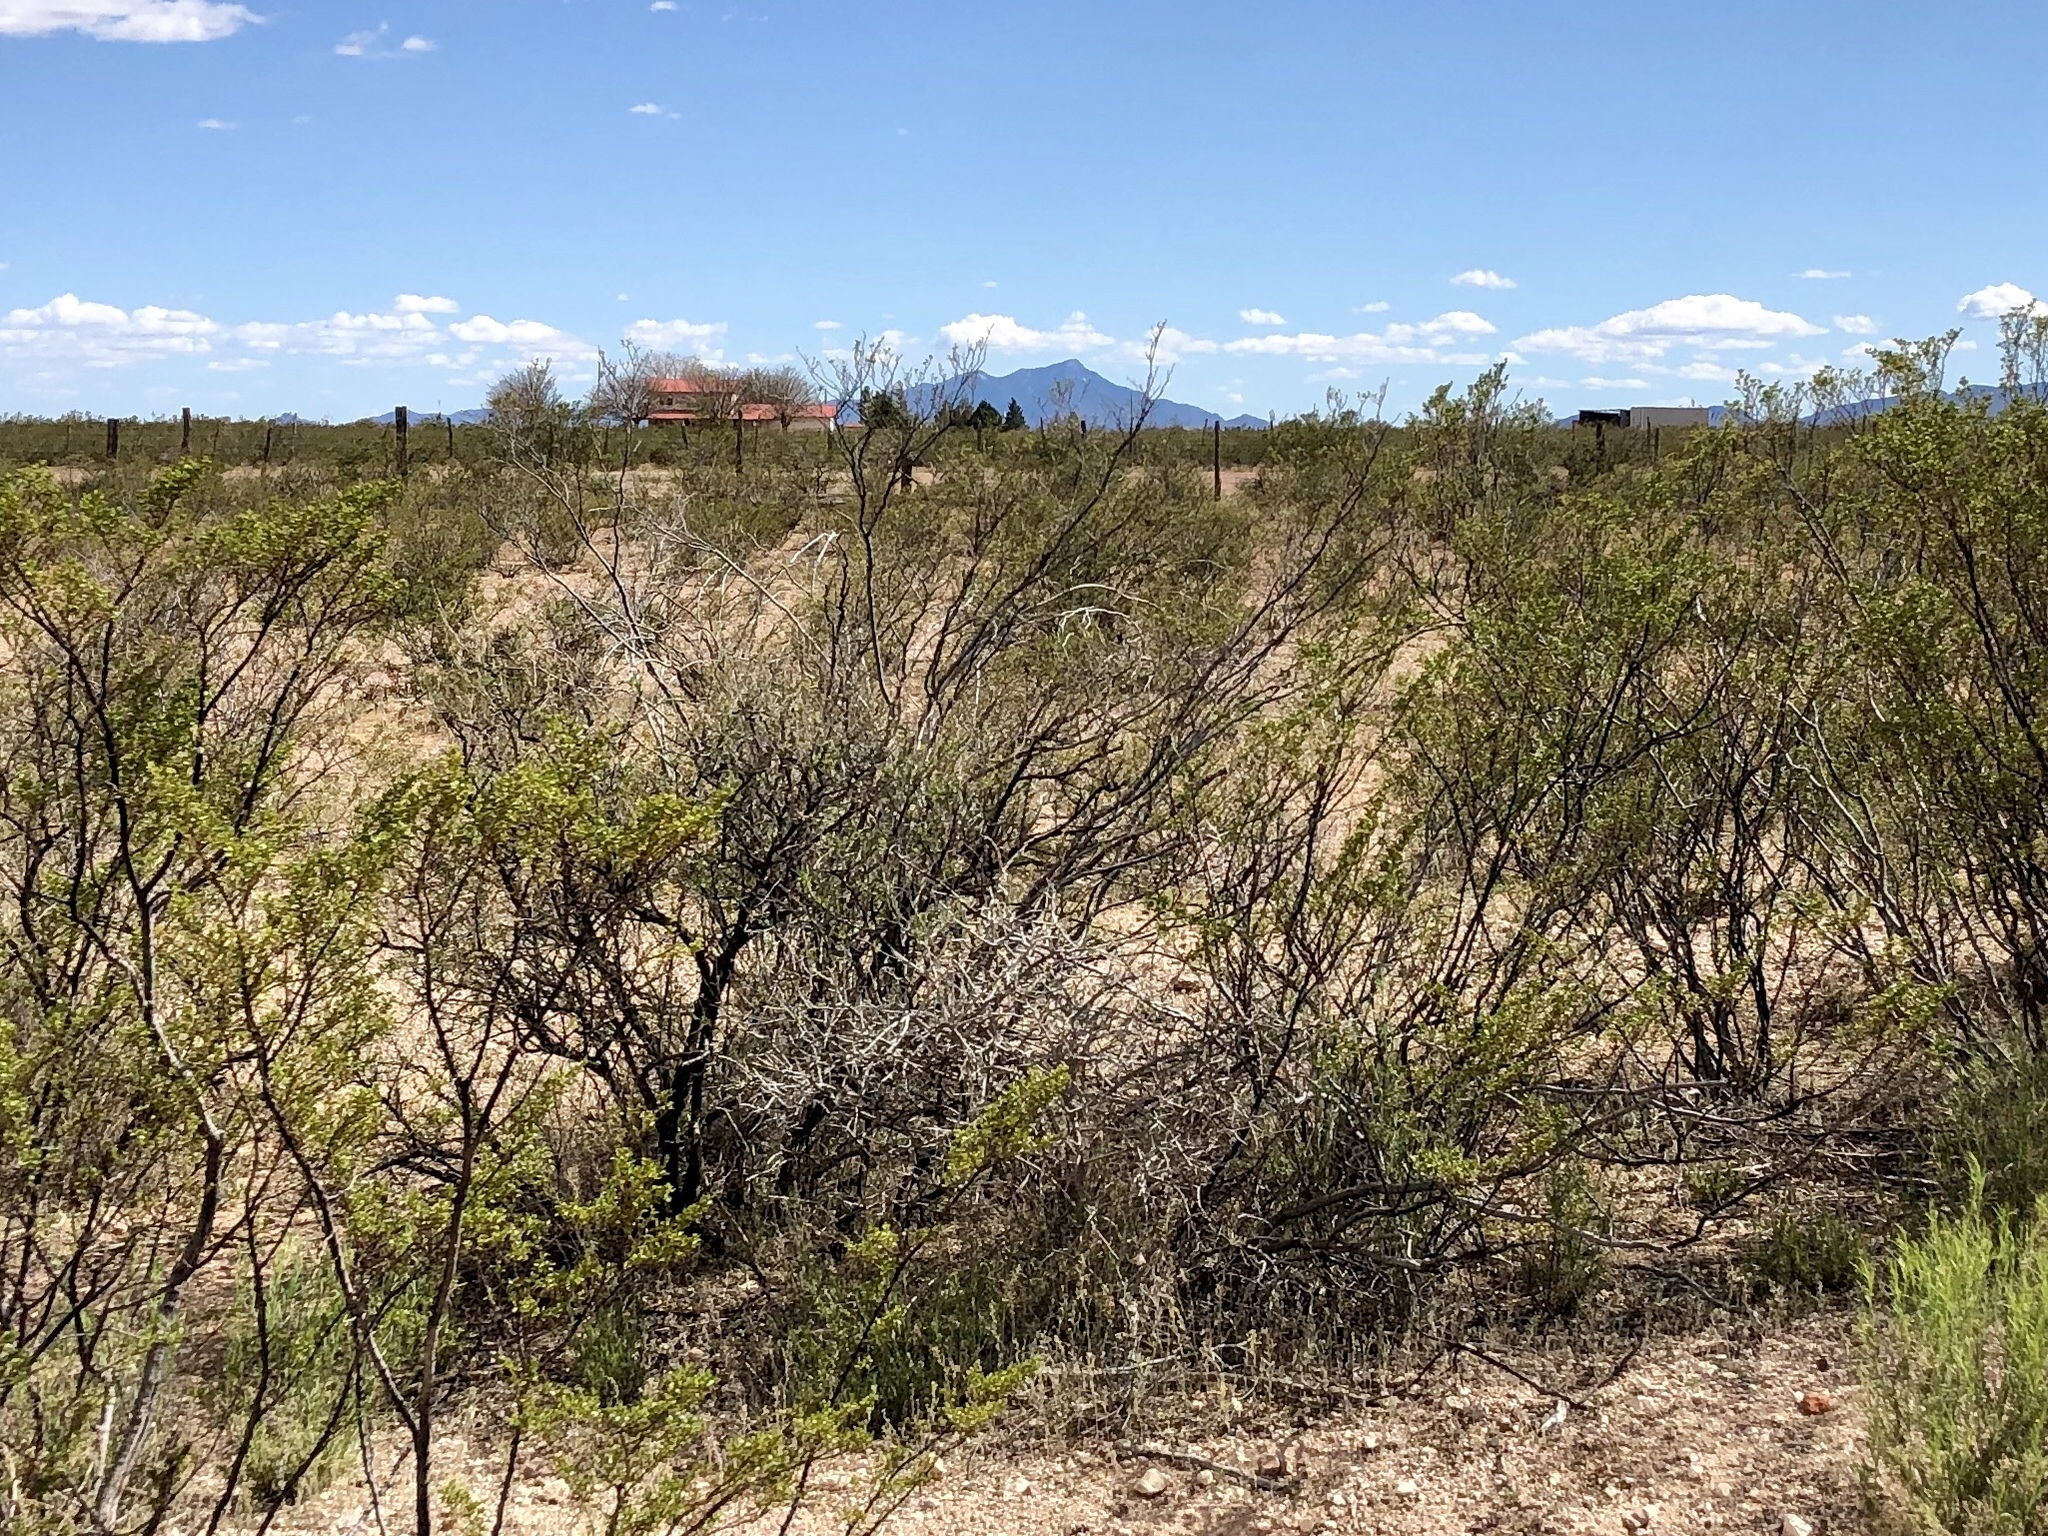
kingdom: Plantae
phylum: Tracheophyta
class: Magnoliopsida
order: Zygophyllales
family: Zygophyllaceae
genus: Larrea
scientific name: Larrea tridentata
